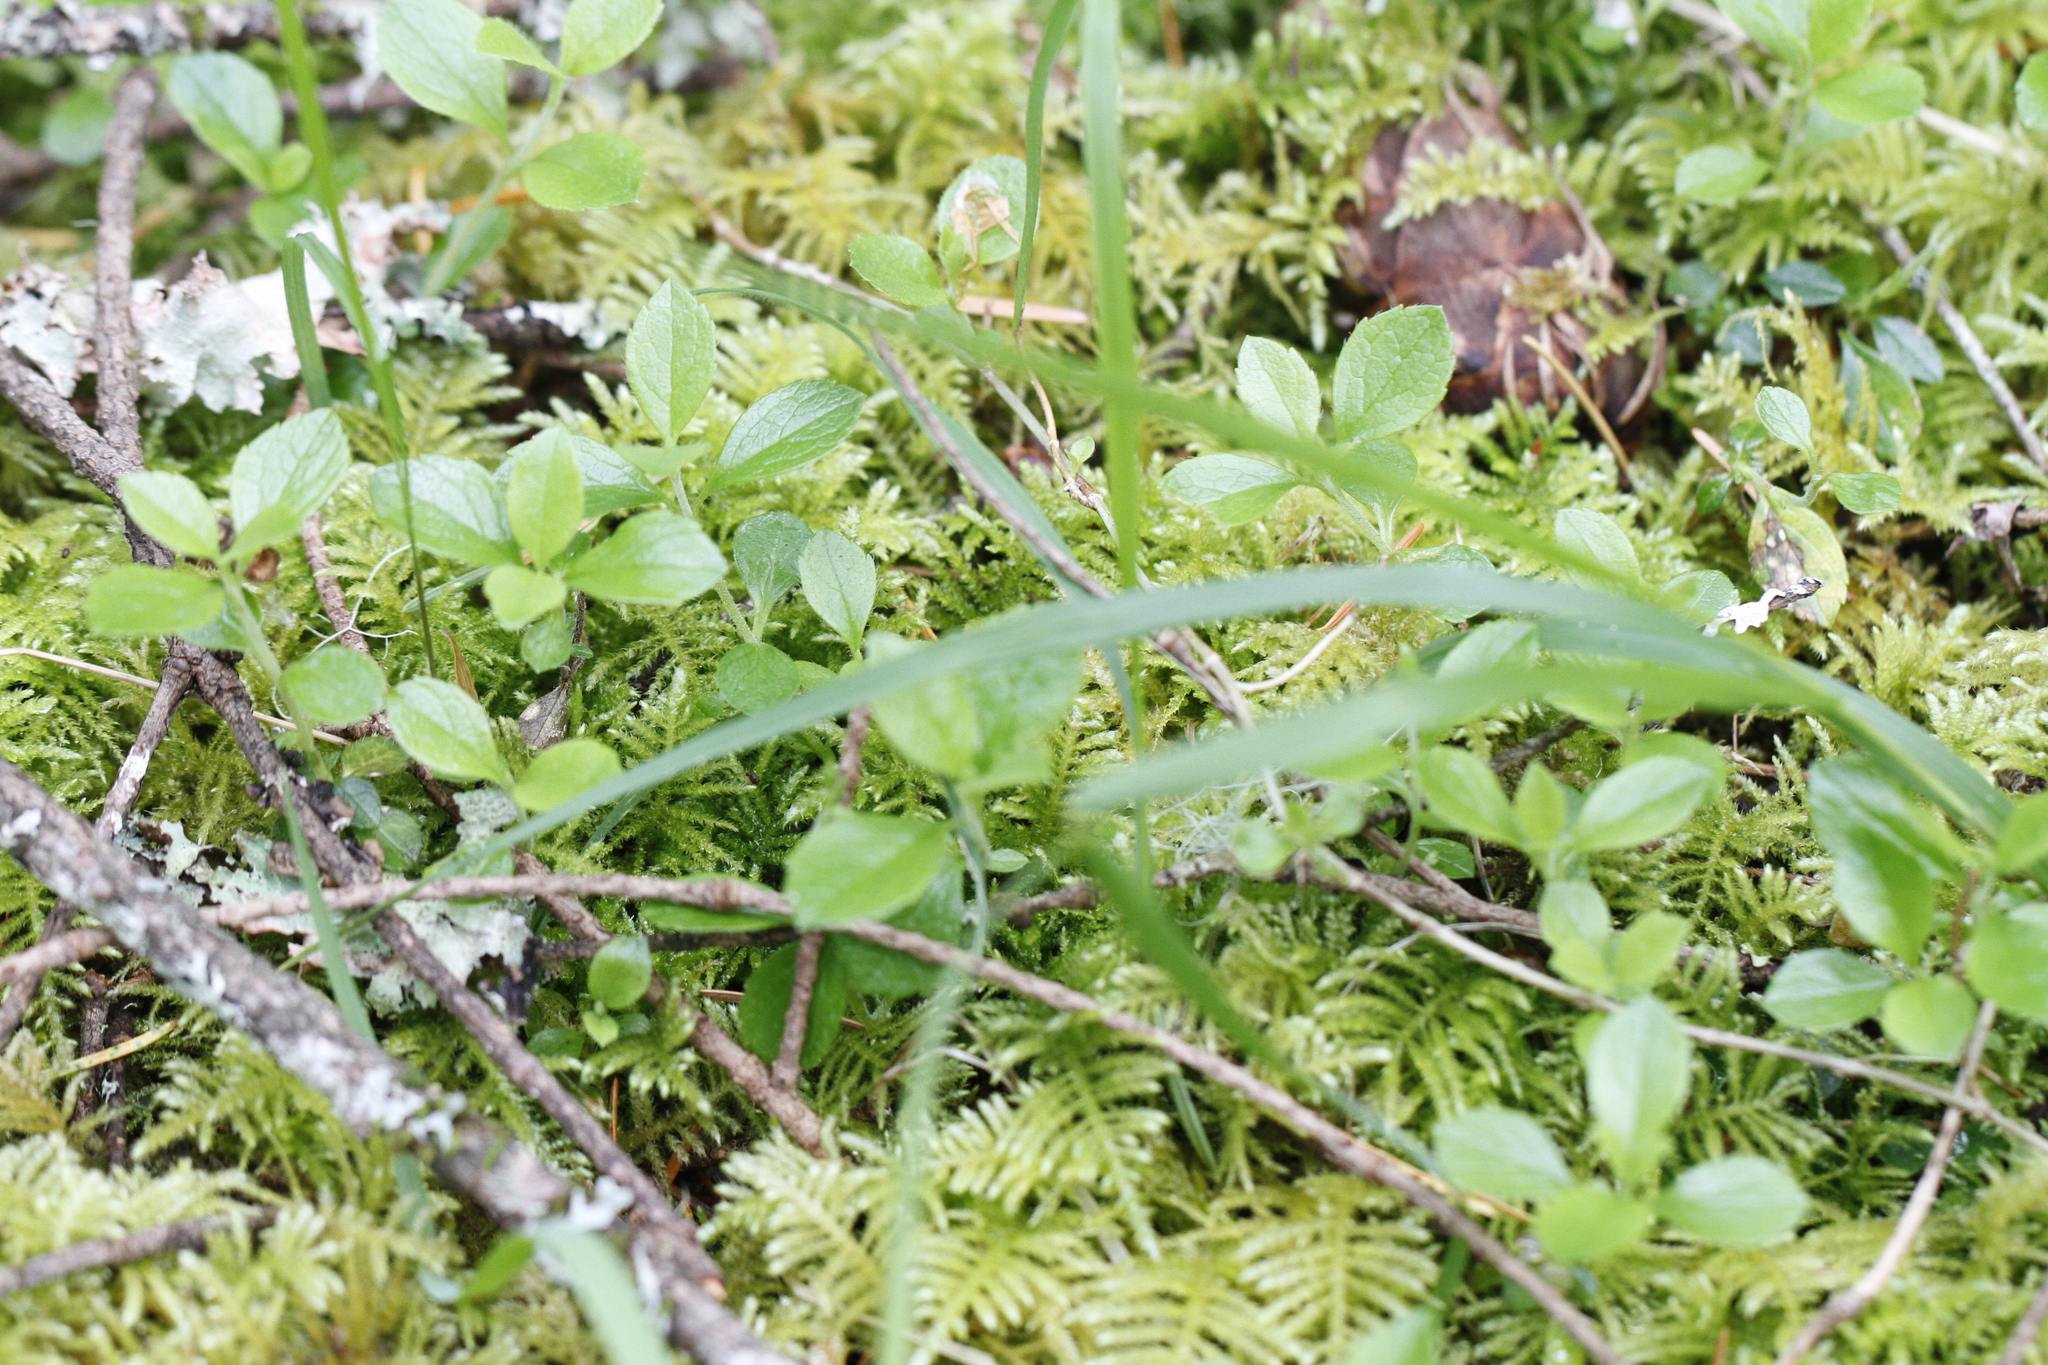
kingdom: Plantae
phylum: Tracheophyta
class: Magnoliopsida
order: Dipsacales
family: Caprifoliaceae
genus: Linnaea
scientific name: Linnaea borealis
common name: Twinflower
